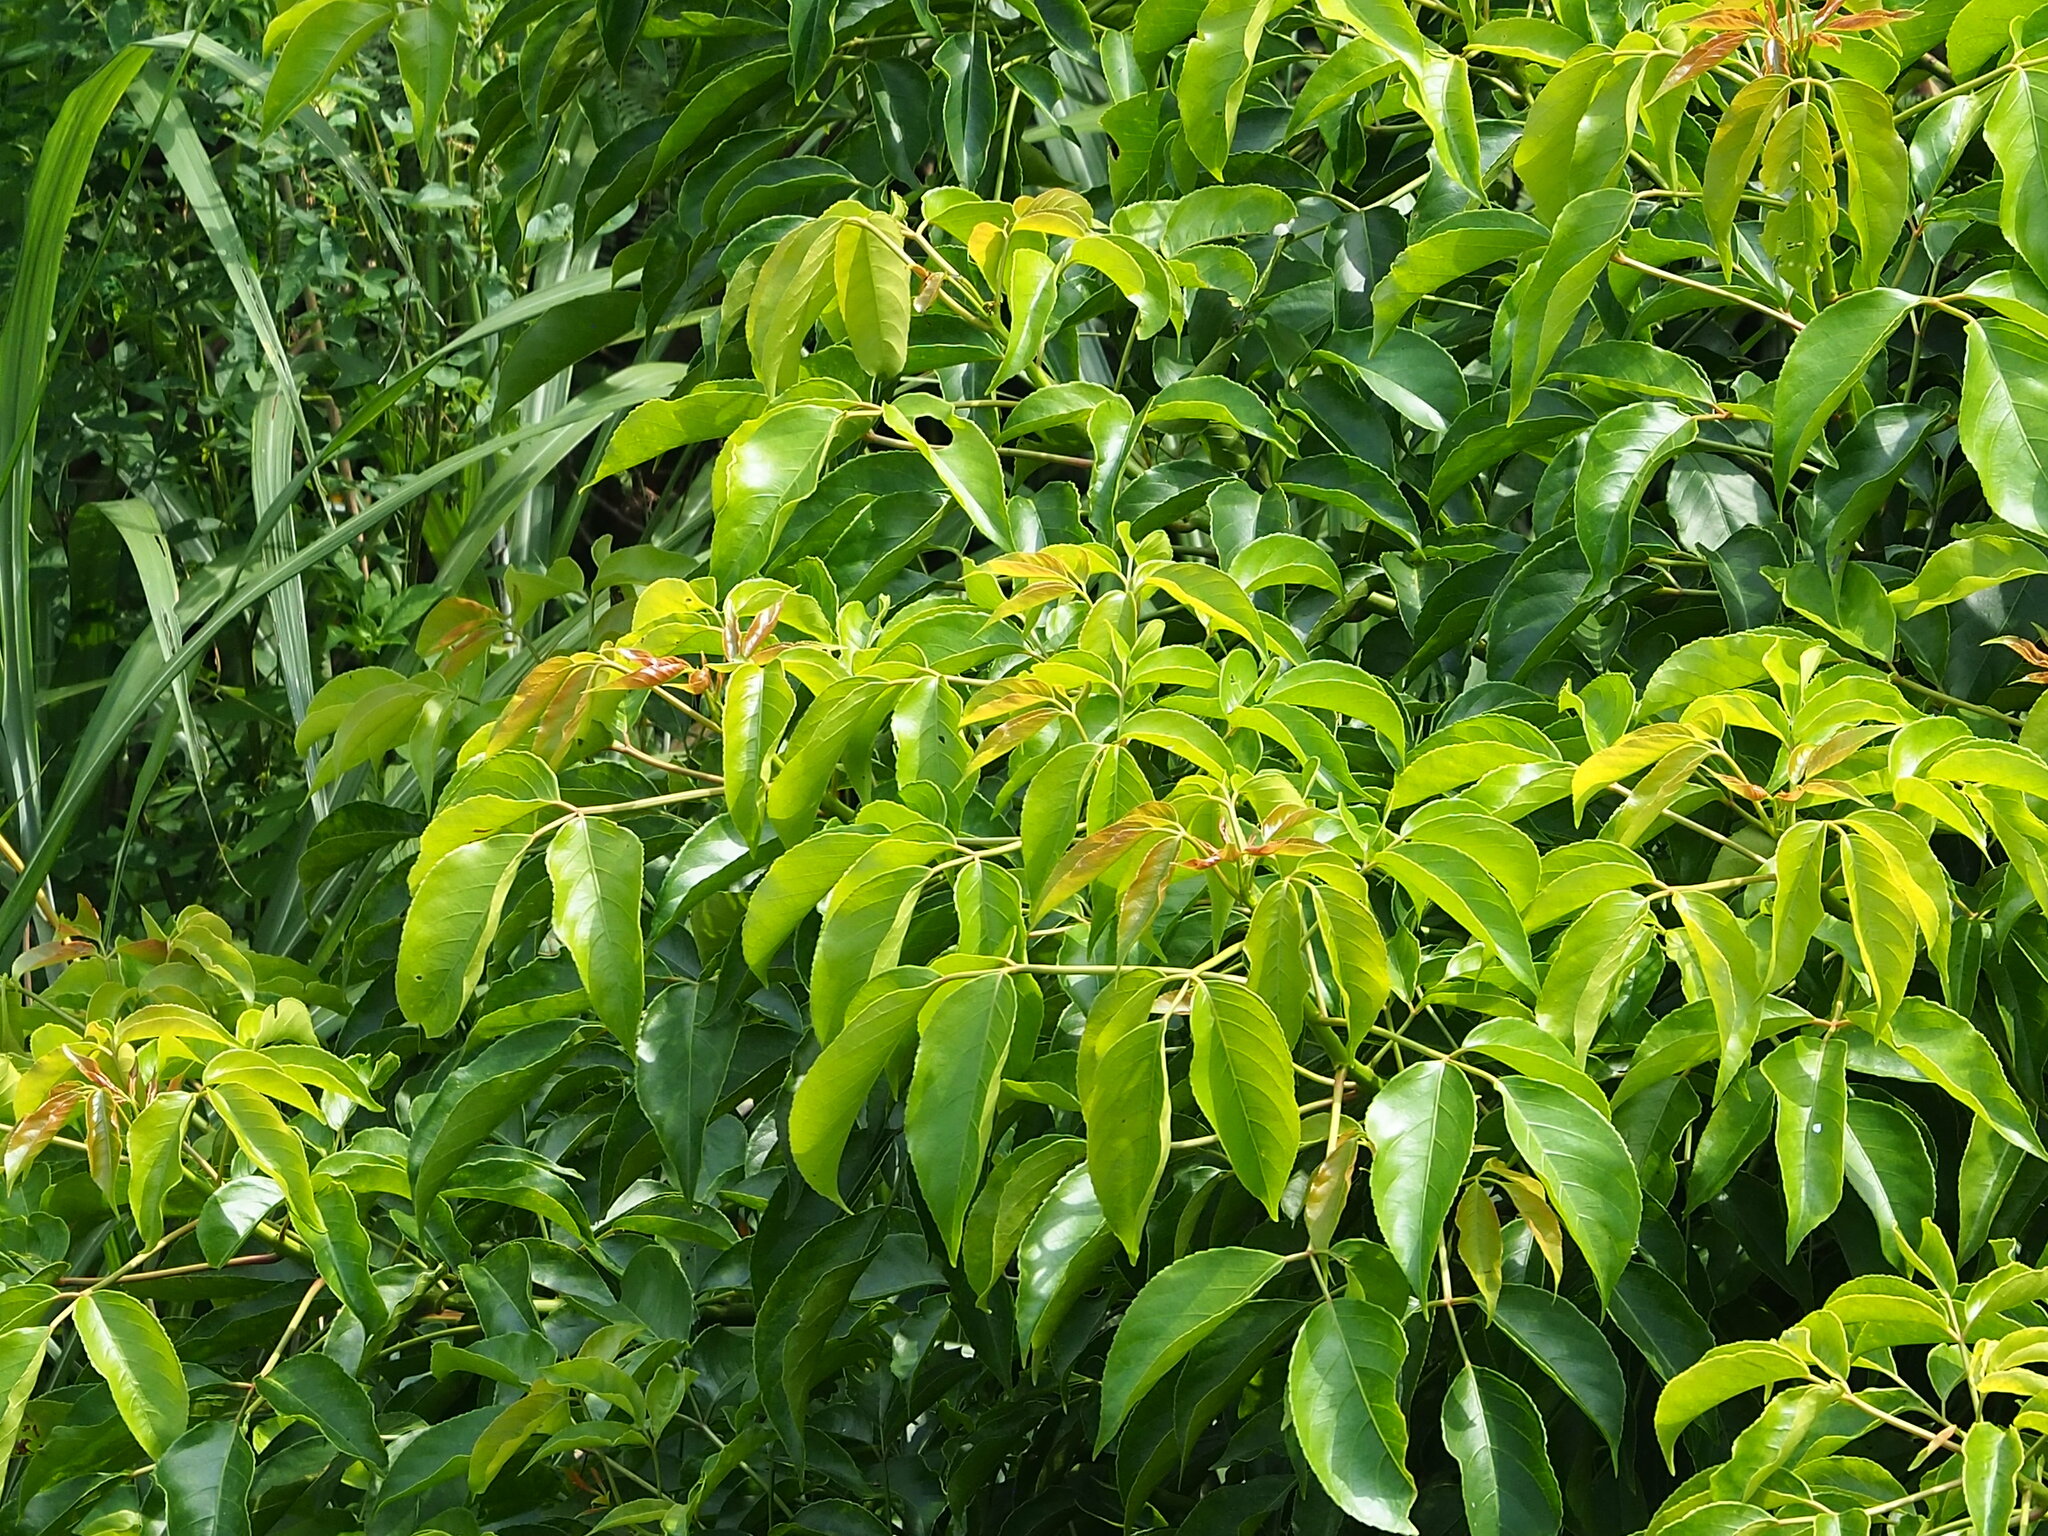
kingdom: Plantae
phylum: Tracheophyta
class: Magnoliopsida
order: Malpighiales
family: Phyllanthaceae
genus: Bischofia
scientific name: Bischofia javanica
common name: Javanese bishopwood
